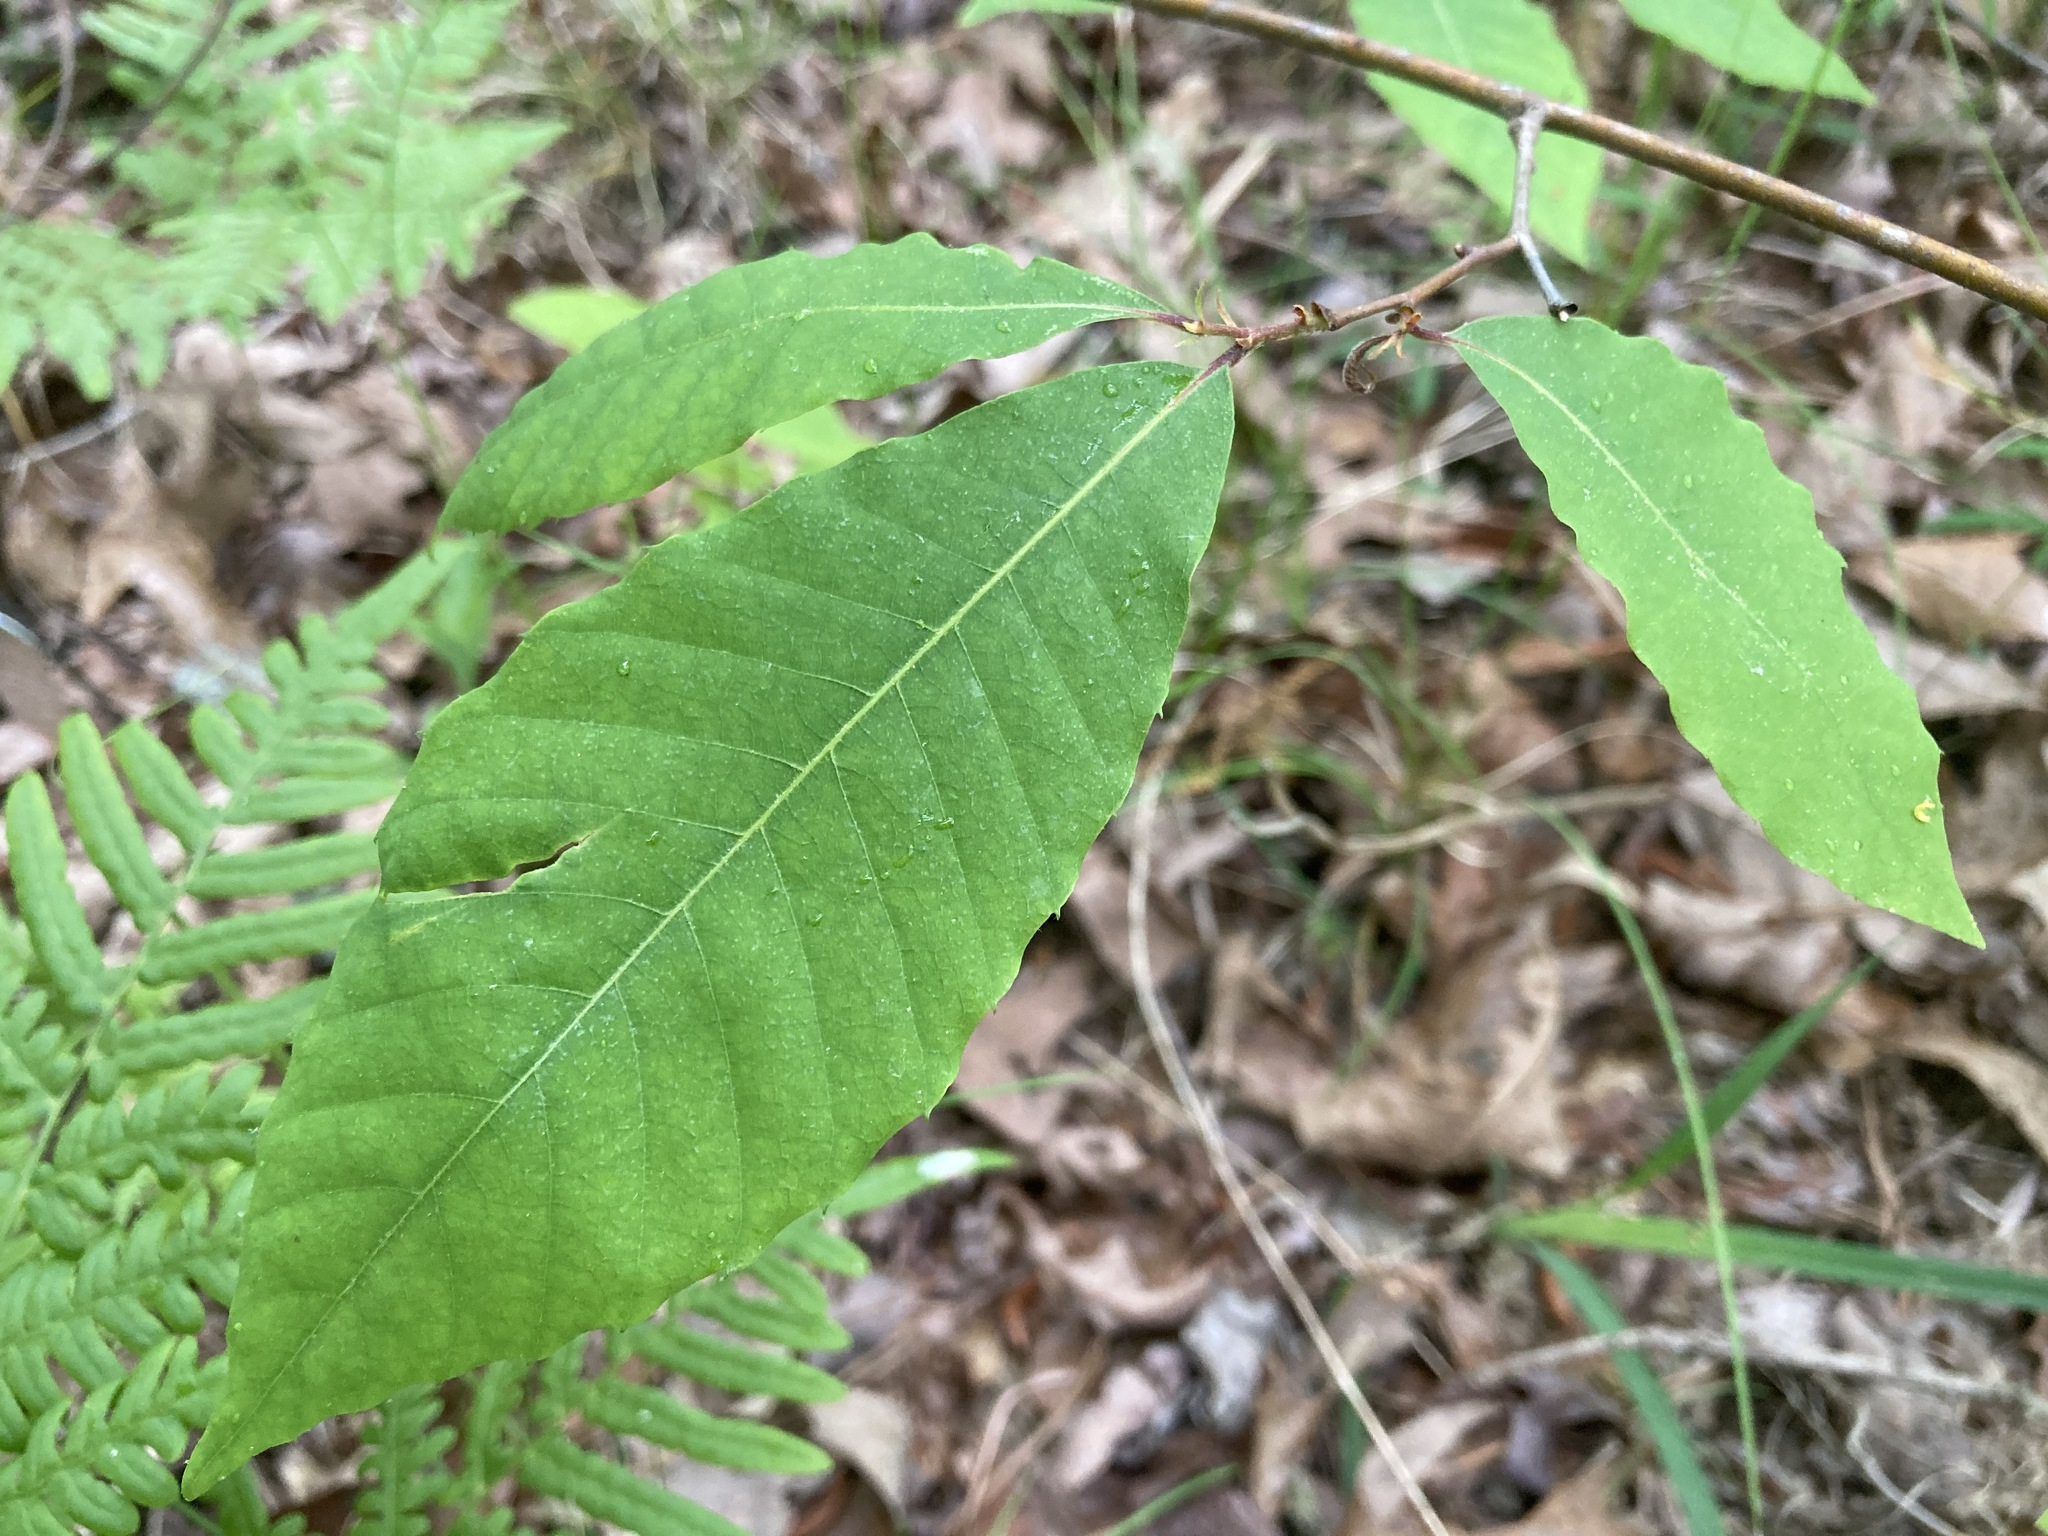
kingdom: Plantae
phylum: Tracheophyta
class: Magnoliopsida
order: Fagales
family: Fagaceae
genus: Castanea
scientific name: Castanea dentata
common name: American chestnut
